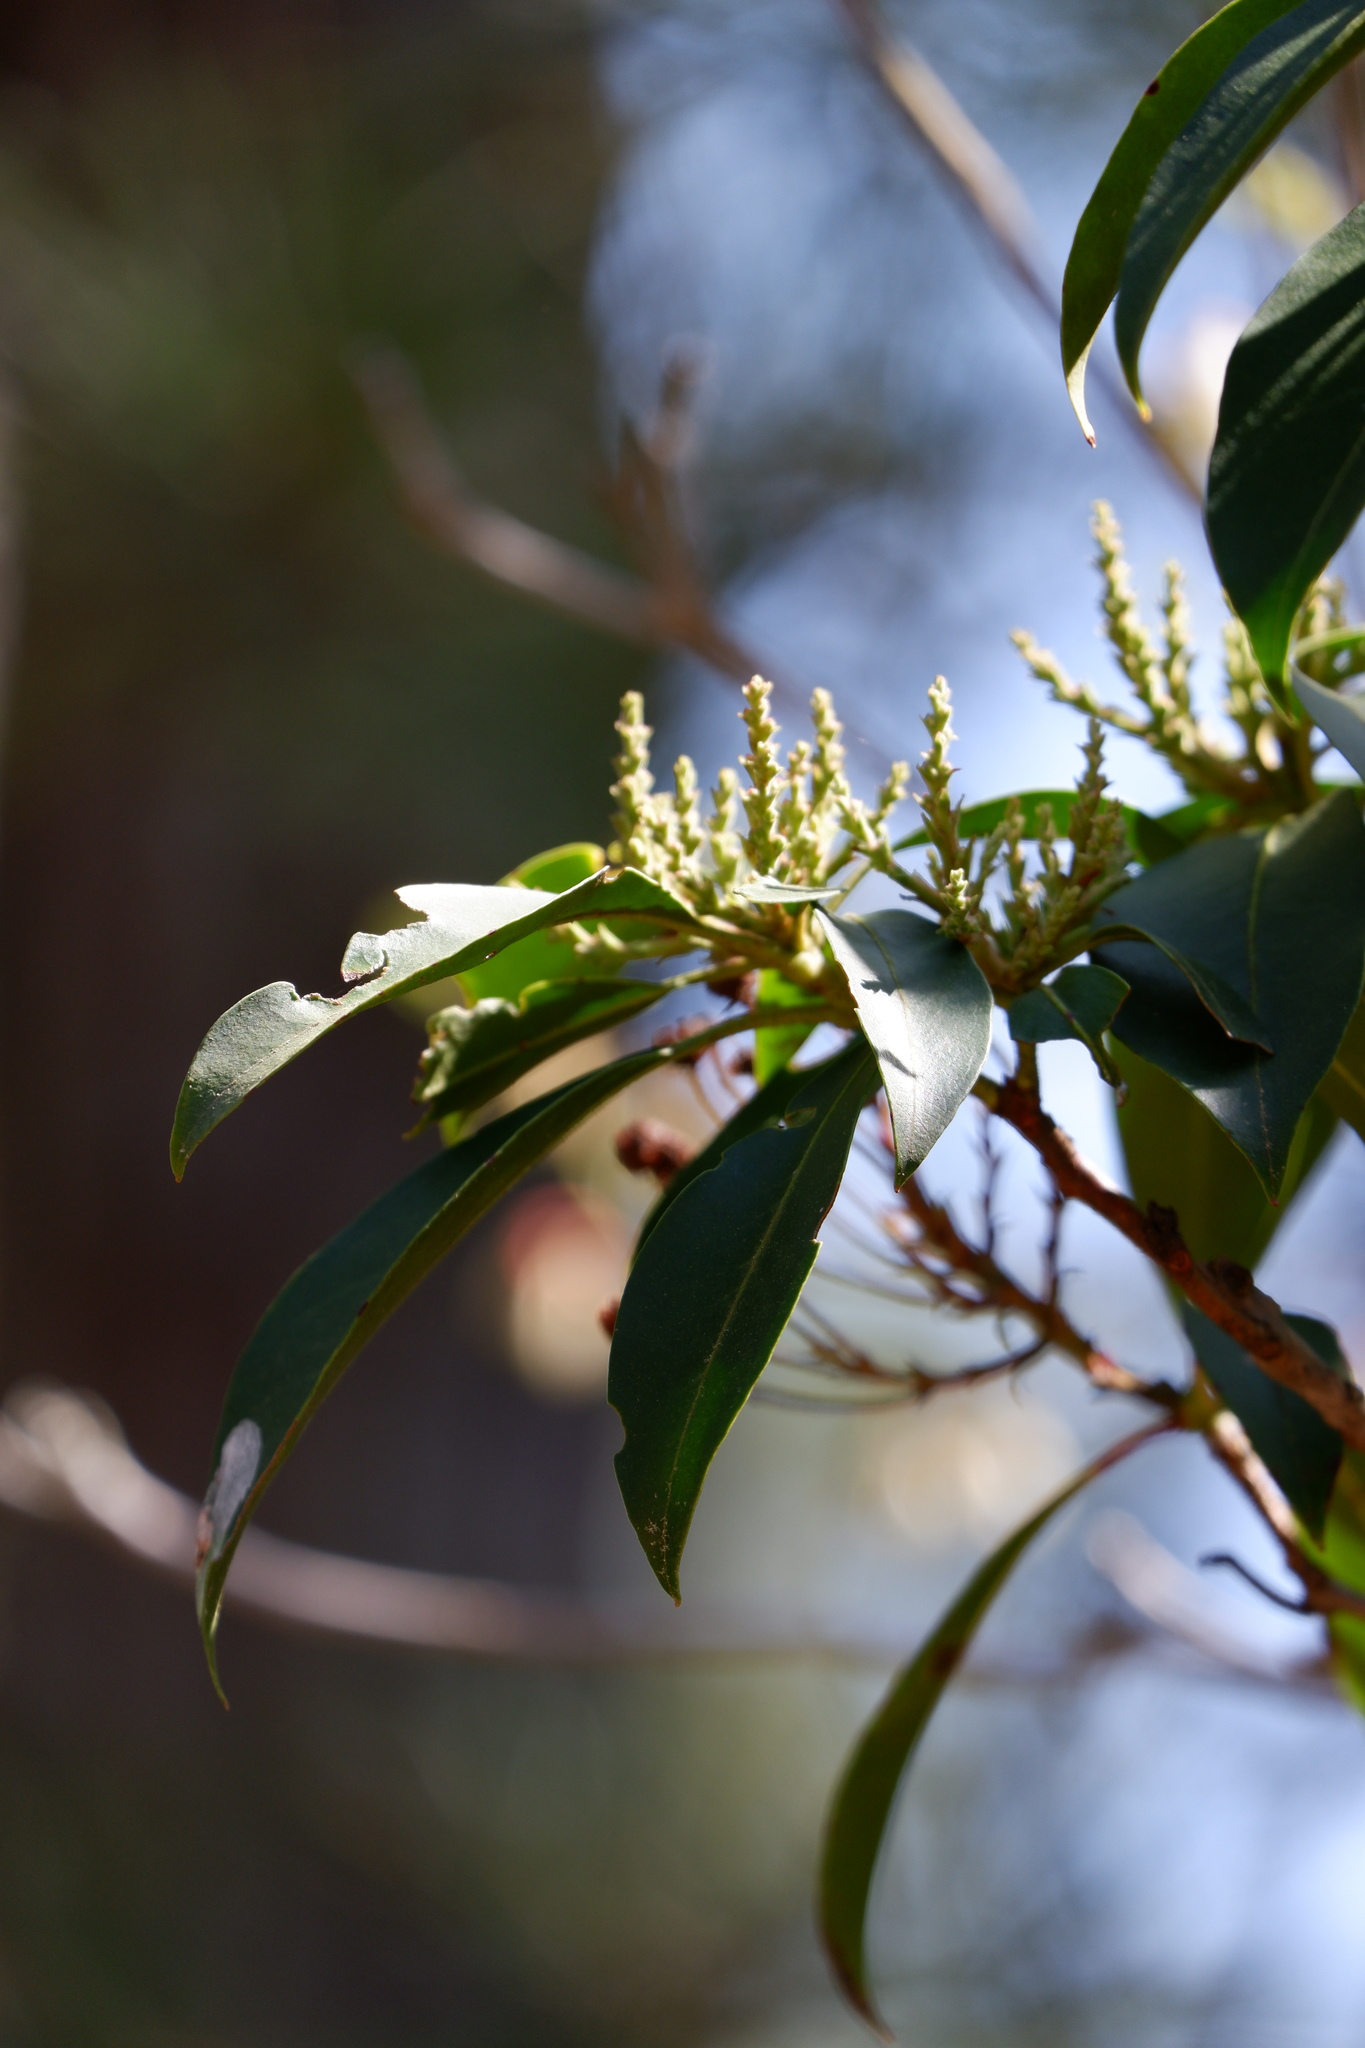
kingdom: Plantae
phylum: Tracheophyta
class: Magnoliopsida
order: Ericales
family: Ericaceae
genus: Kalmia
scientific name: Kalmia latifolia
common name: Mountain-laurel
